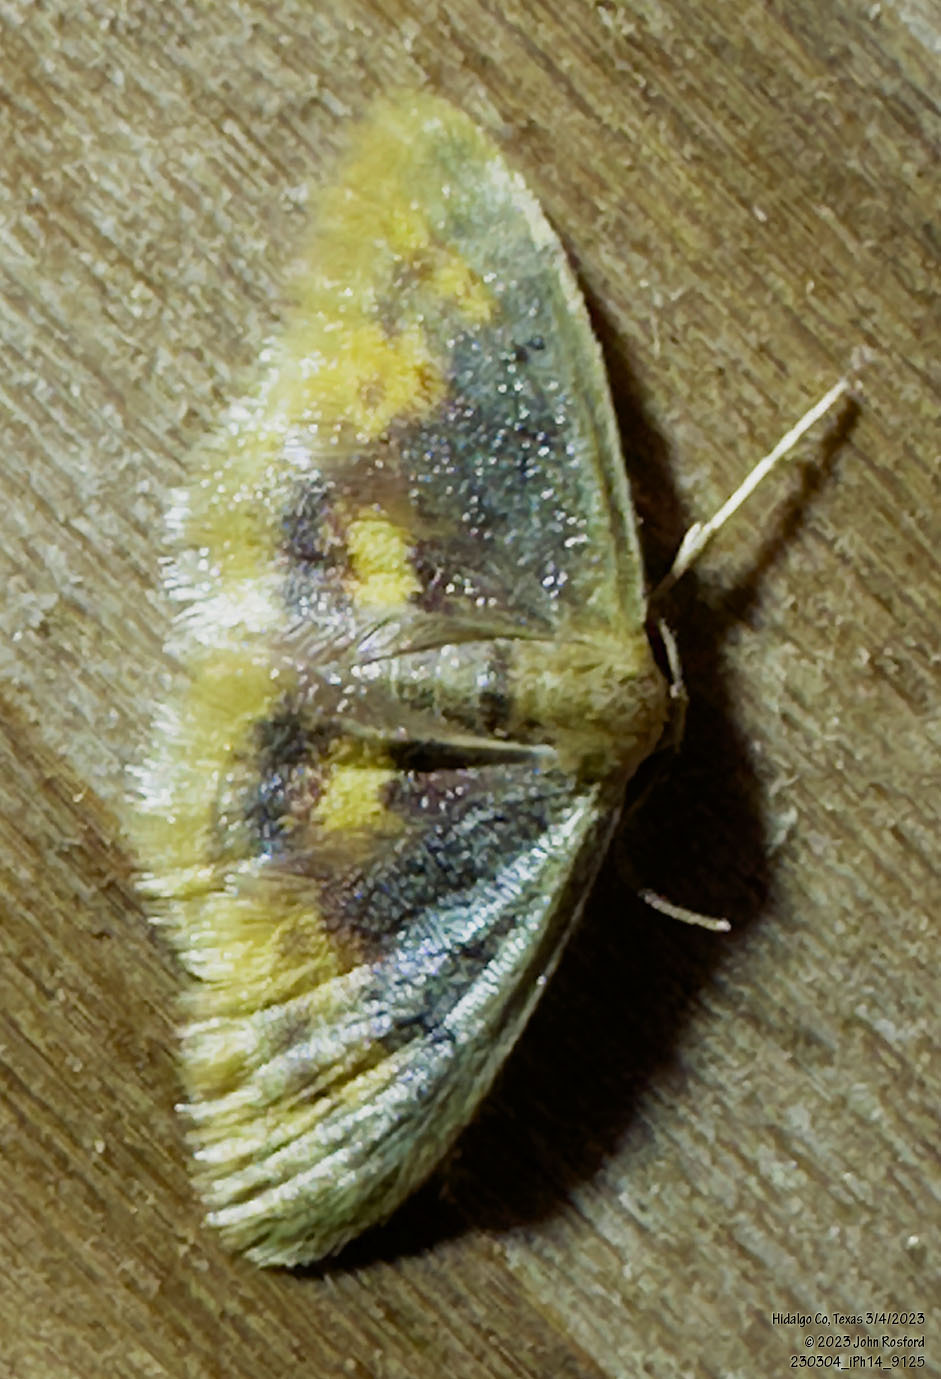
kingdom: Animalia
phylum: Arthropoda
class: Insecta
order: Lepidoptera
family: Geometridae
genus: Idaea
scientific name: Idaea scintillularia
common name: Diminutive wave
